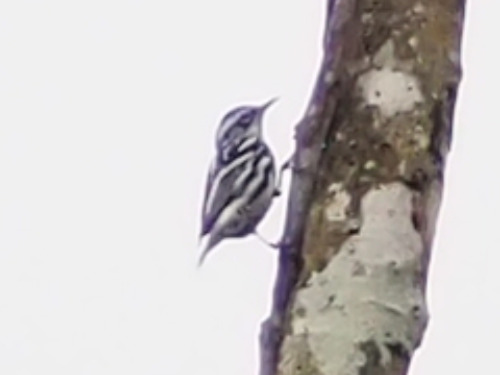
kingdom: Animalia
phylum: Chordata
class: Aves
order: Passeriformes
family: Parulidae
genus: Mniotilta
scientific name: Mniotilta varia
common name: Black-and-white warbler
